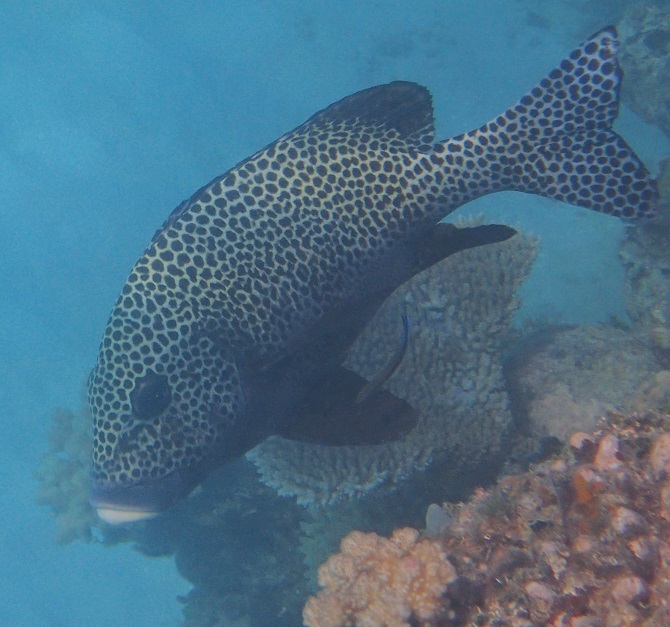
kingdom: Animalia
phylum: Chordata
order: Perciformes
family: Haemulidae
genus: Plectorhinchus
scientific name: Plectorhinchus chaetodonoides
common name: Harlequin sweetlips
